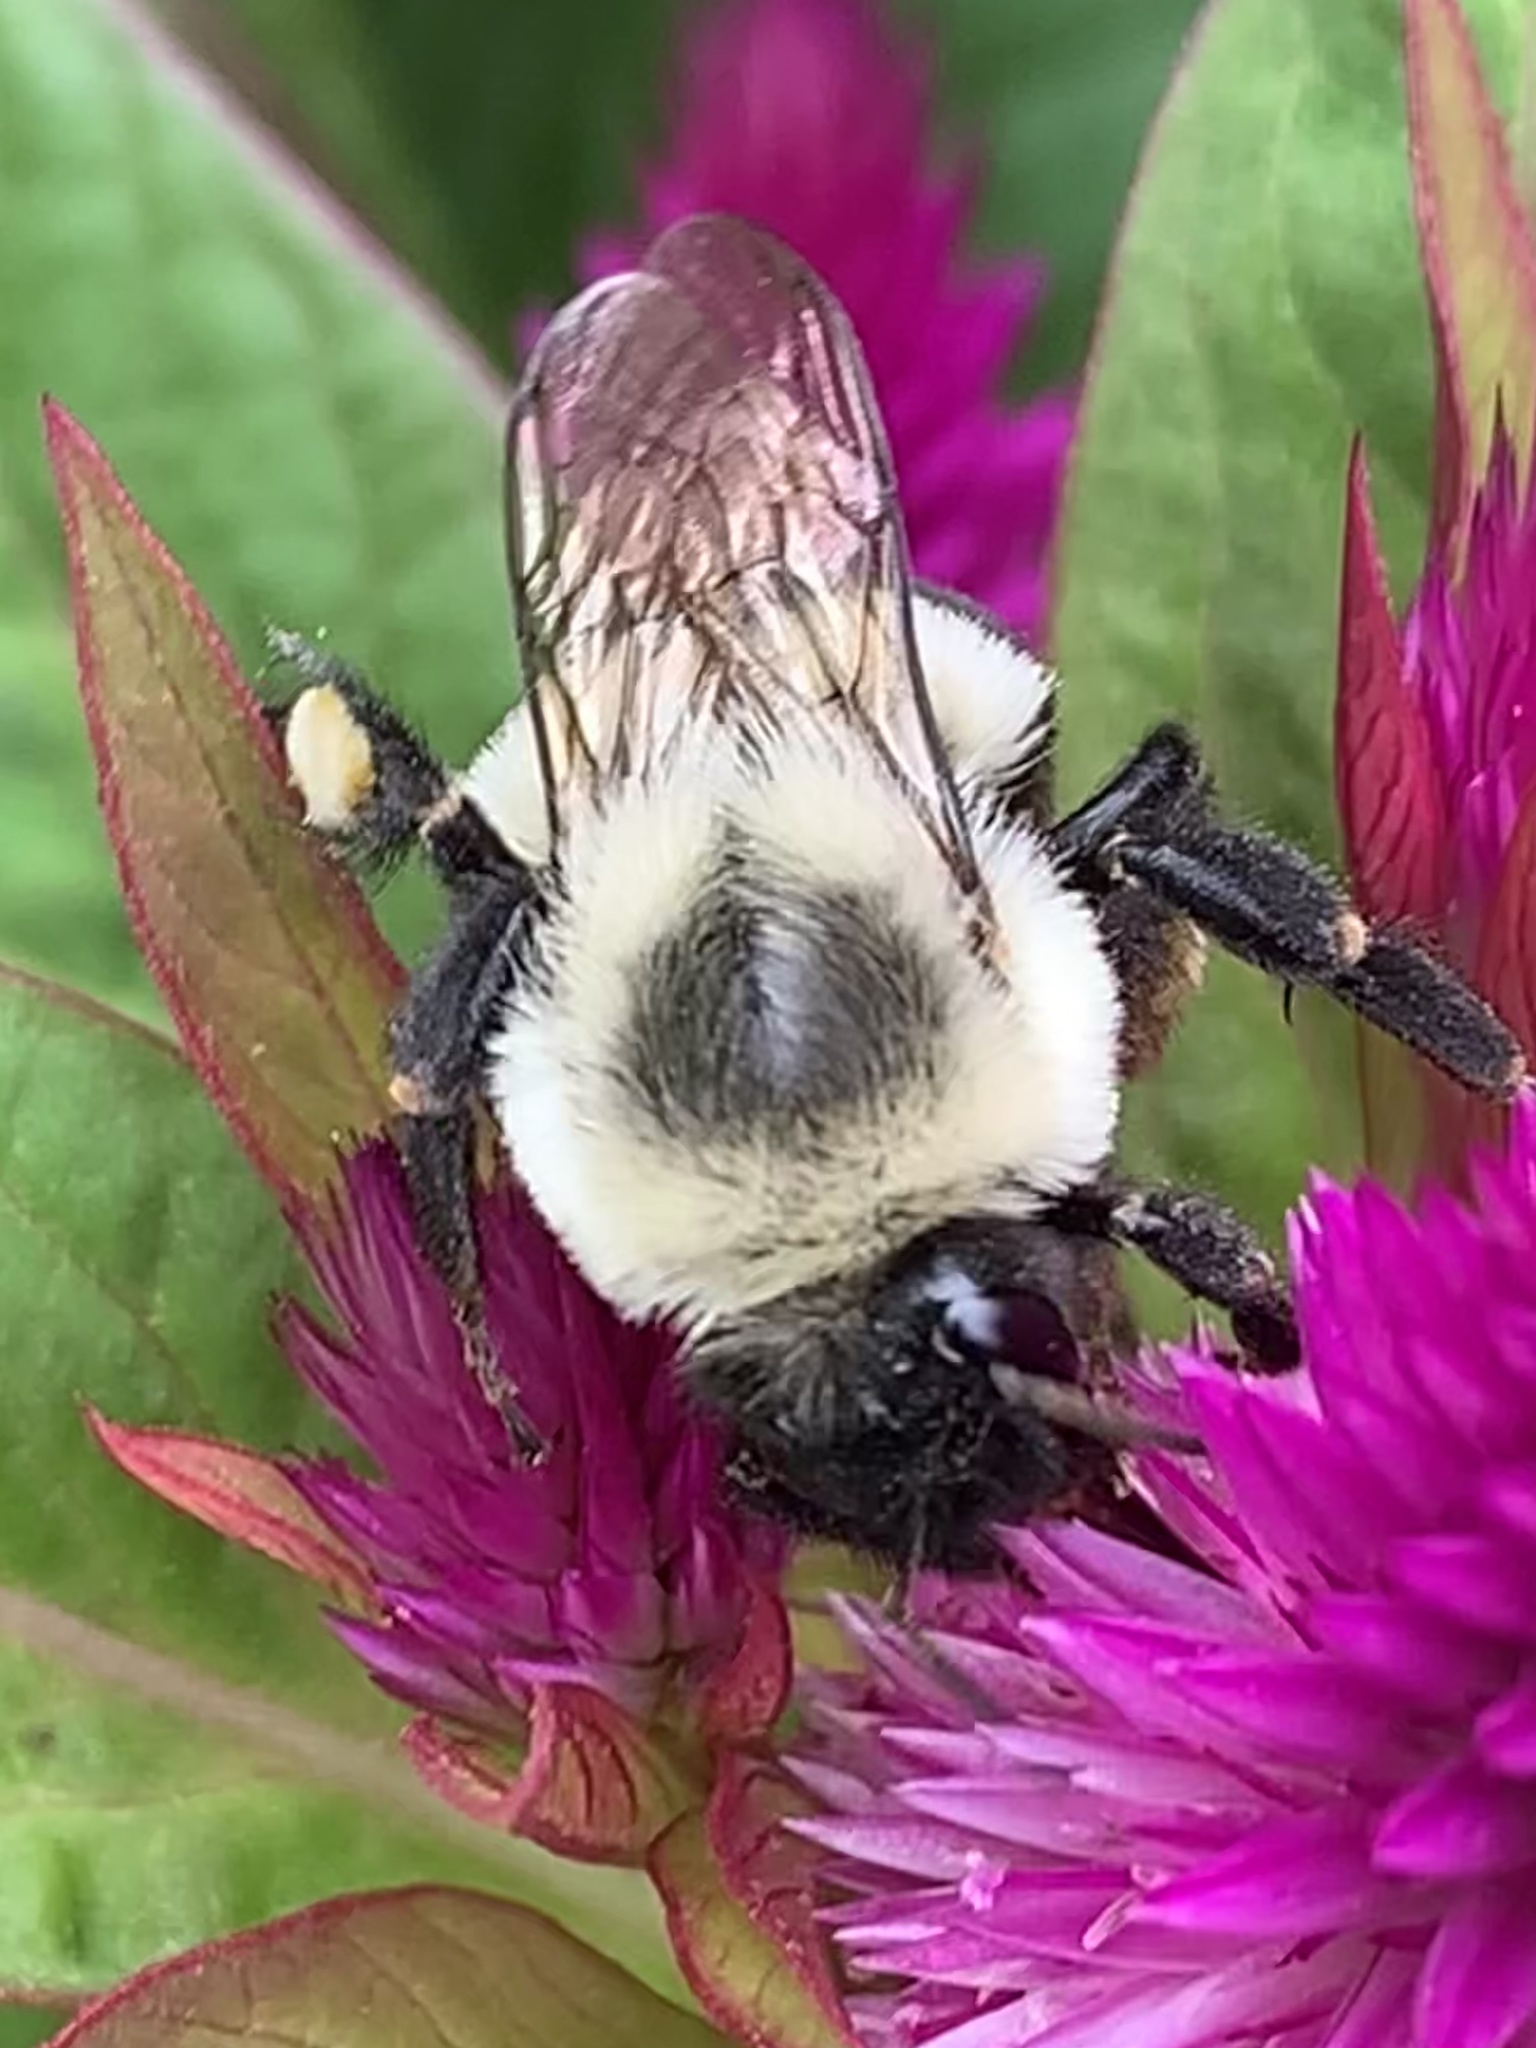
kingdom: Animalia
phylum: Arthropoda
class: Insecta
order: Hymenoptera
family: Apidae
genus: Bombus
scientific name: Bombus impatiens
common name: Common eastern bumble bee
